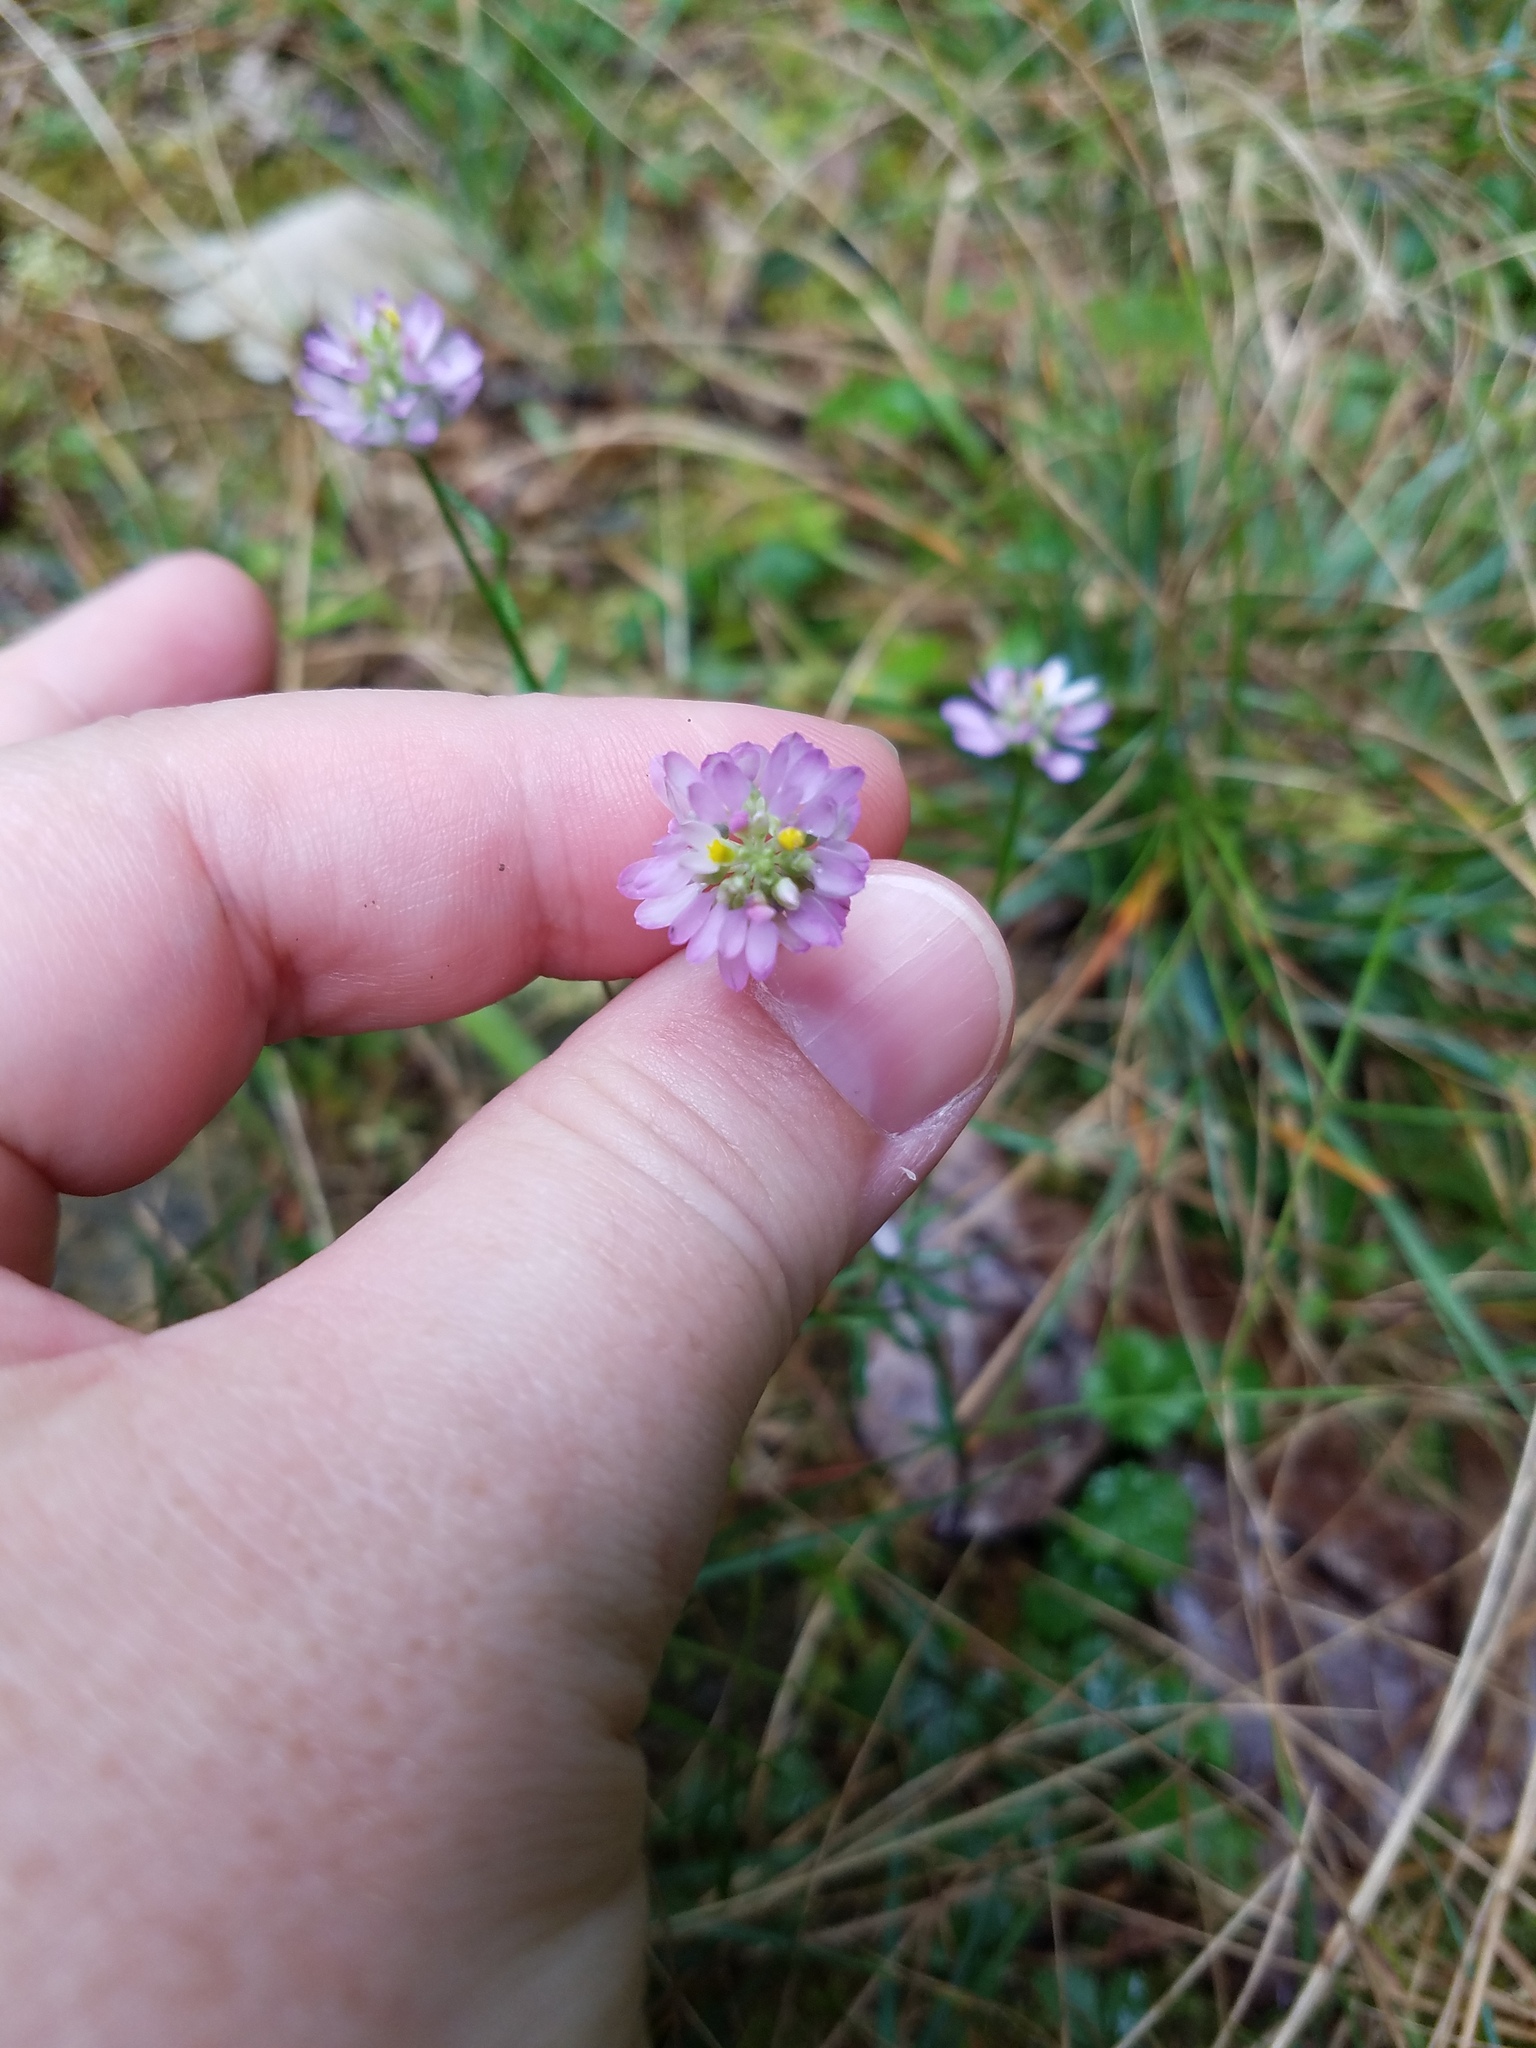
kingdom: Plantae
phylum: Tracheophyta
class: Magnoliopsida
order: Fabales
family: Polygalaceae
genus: Polygala
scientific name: Polygala curtissii
